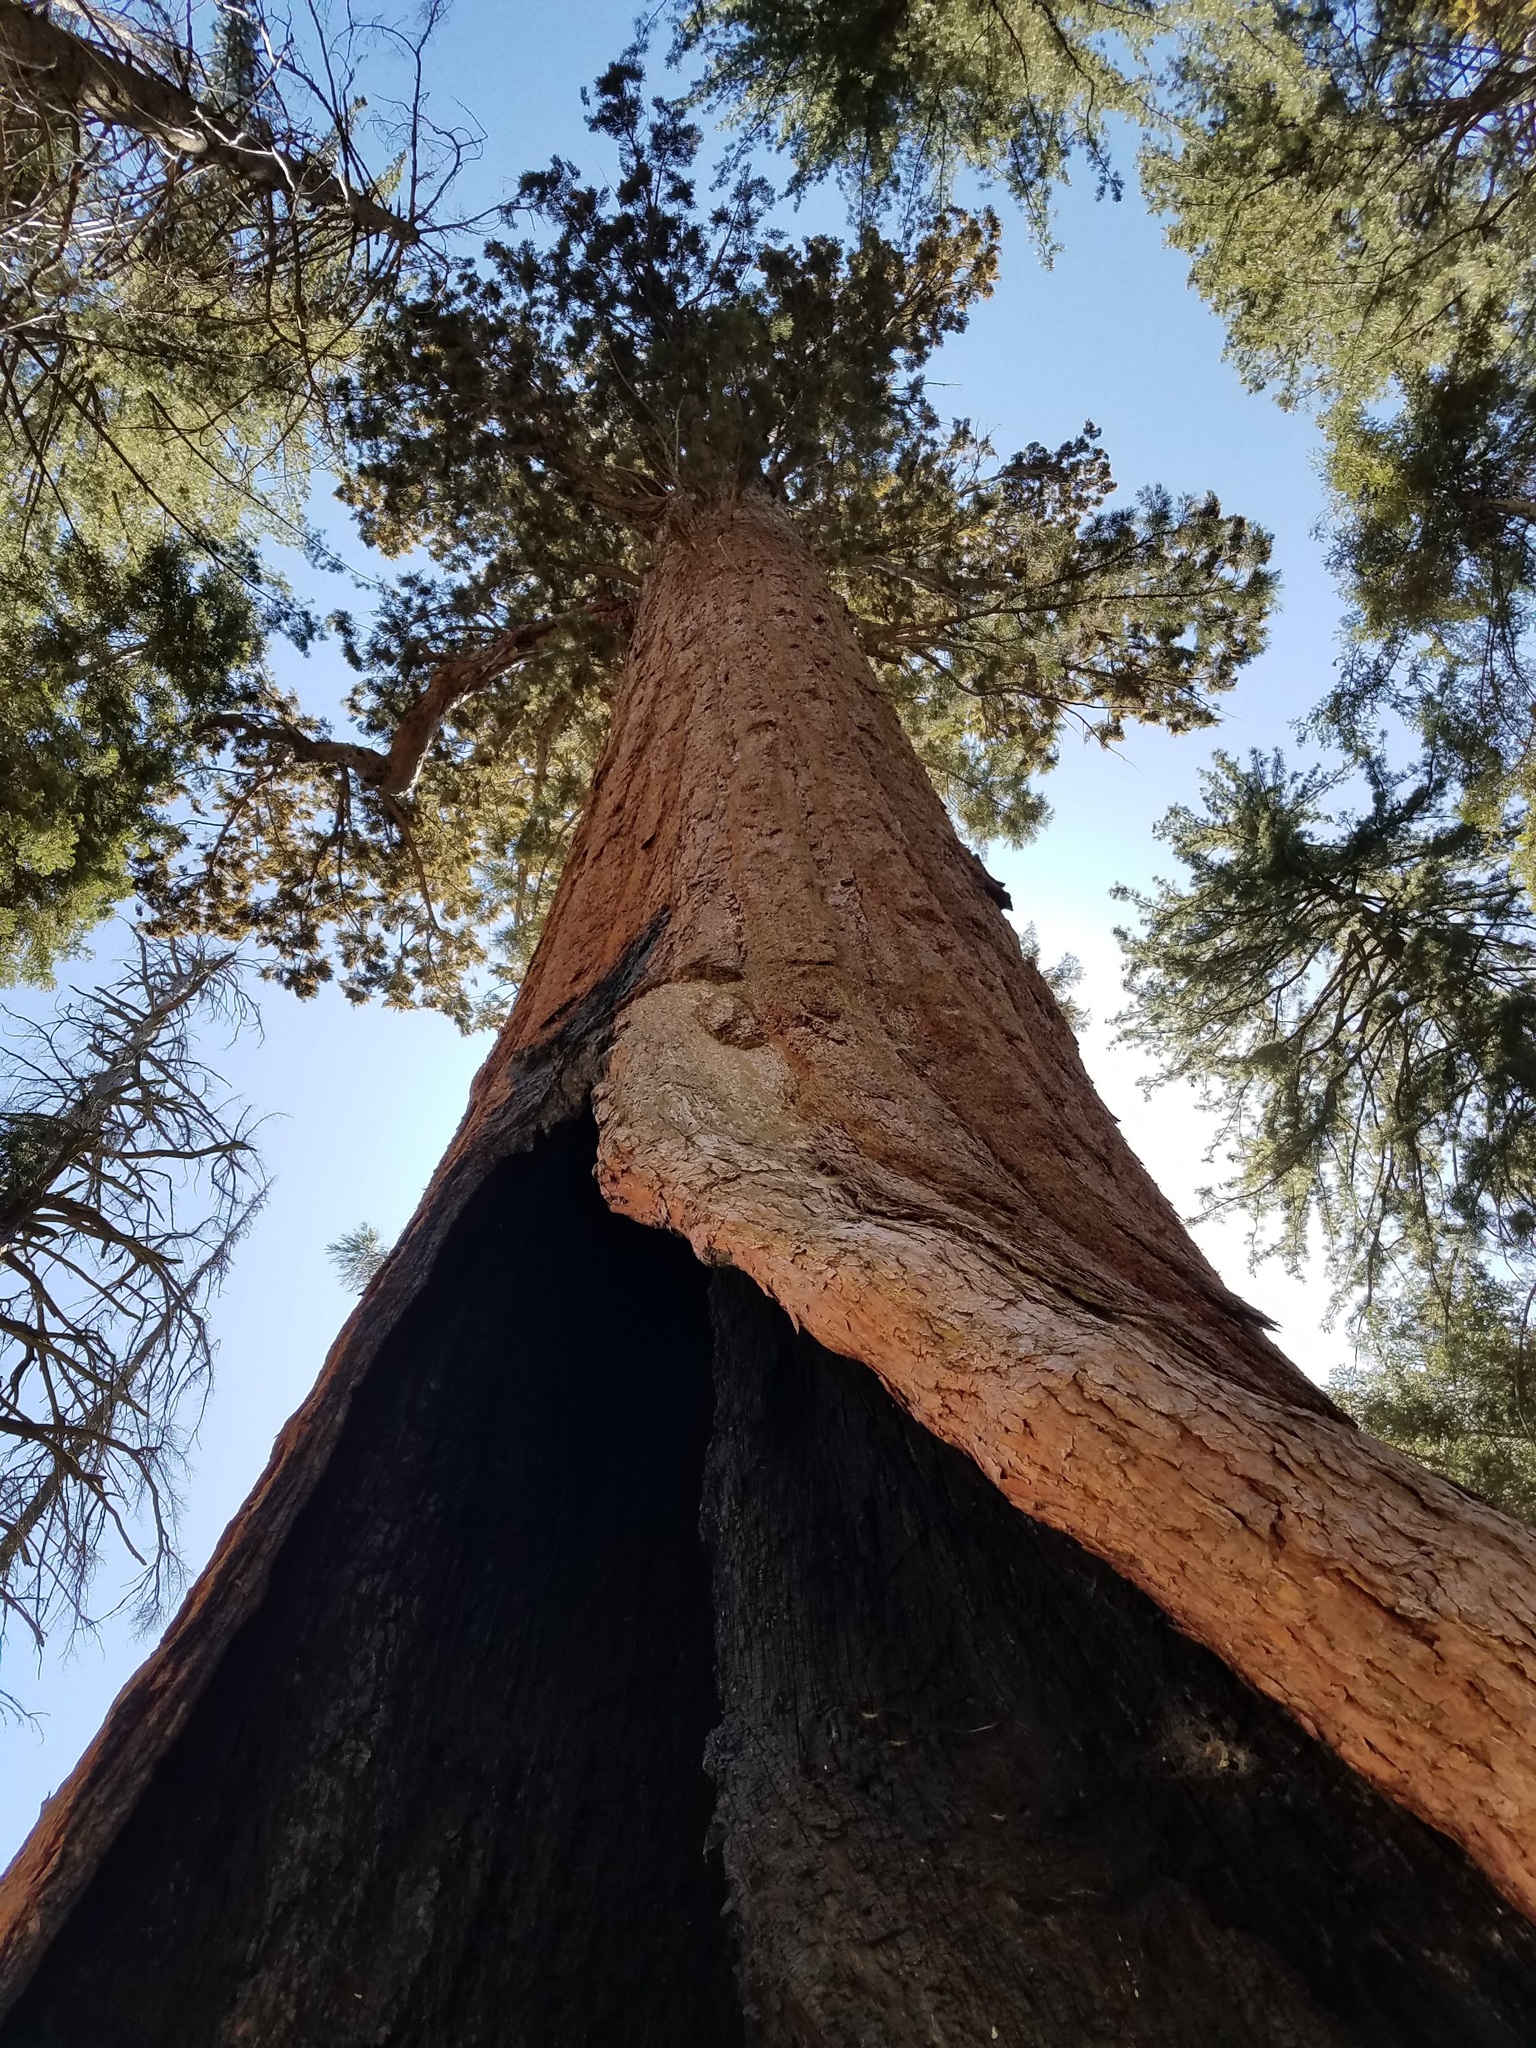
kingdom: Plantae
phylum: Tracheophyta
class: Pinopsida
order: Pinales
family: Cupressaceae
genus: Sequoiadendron
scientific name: Sequoiadendron giganteum
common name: Wellingtonia
